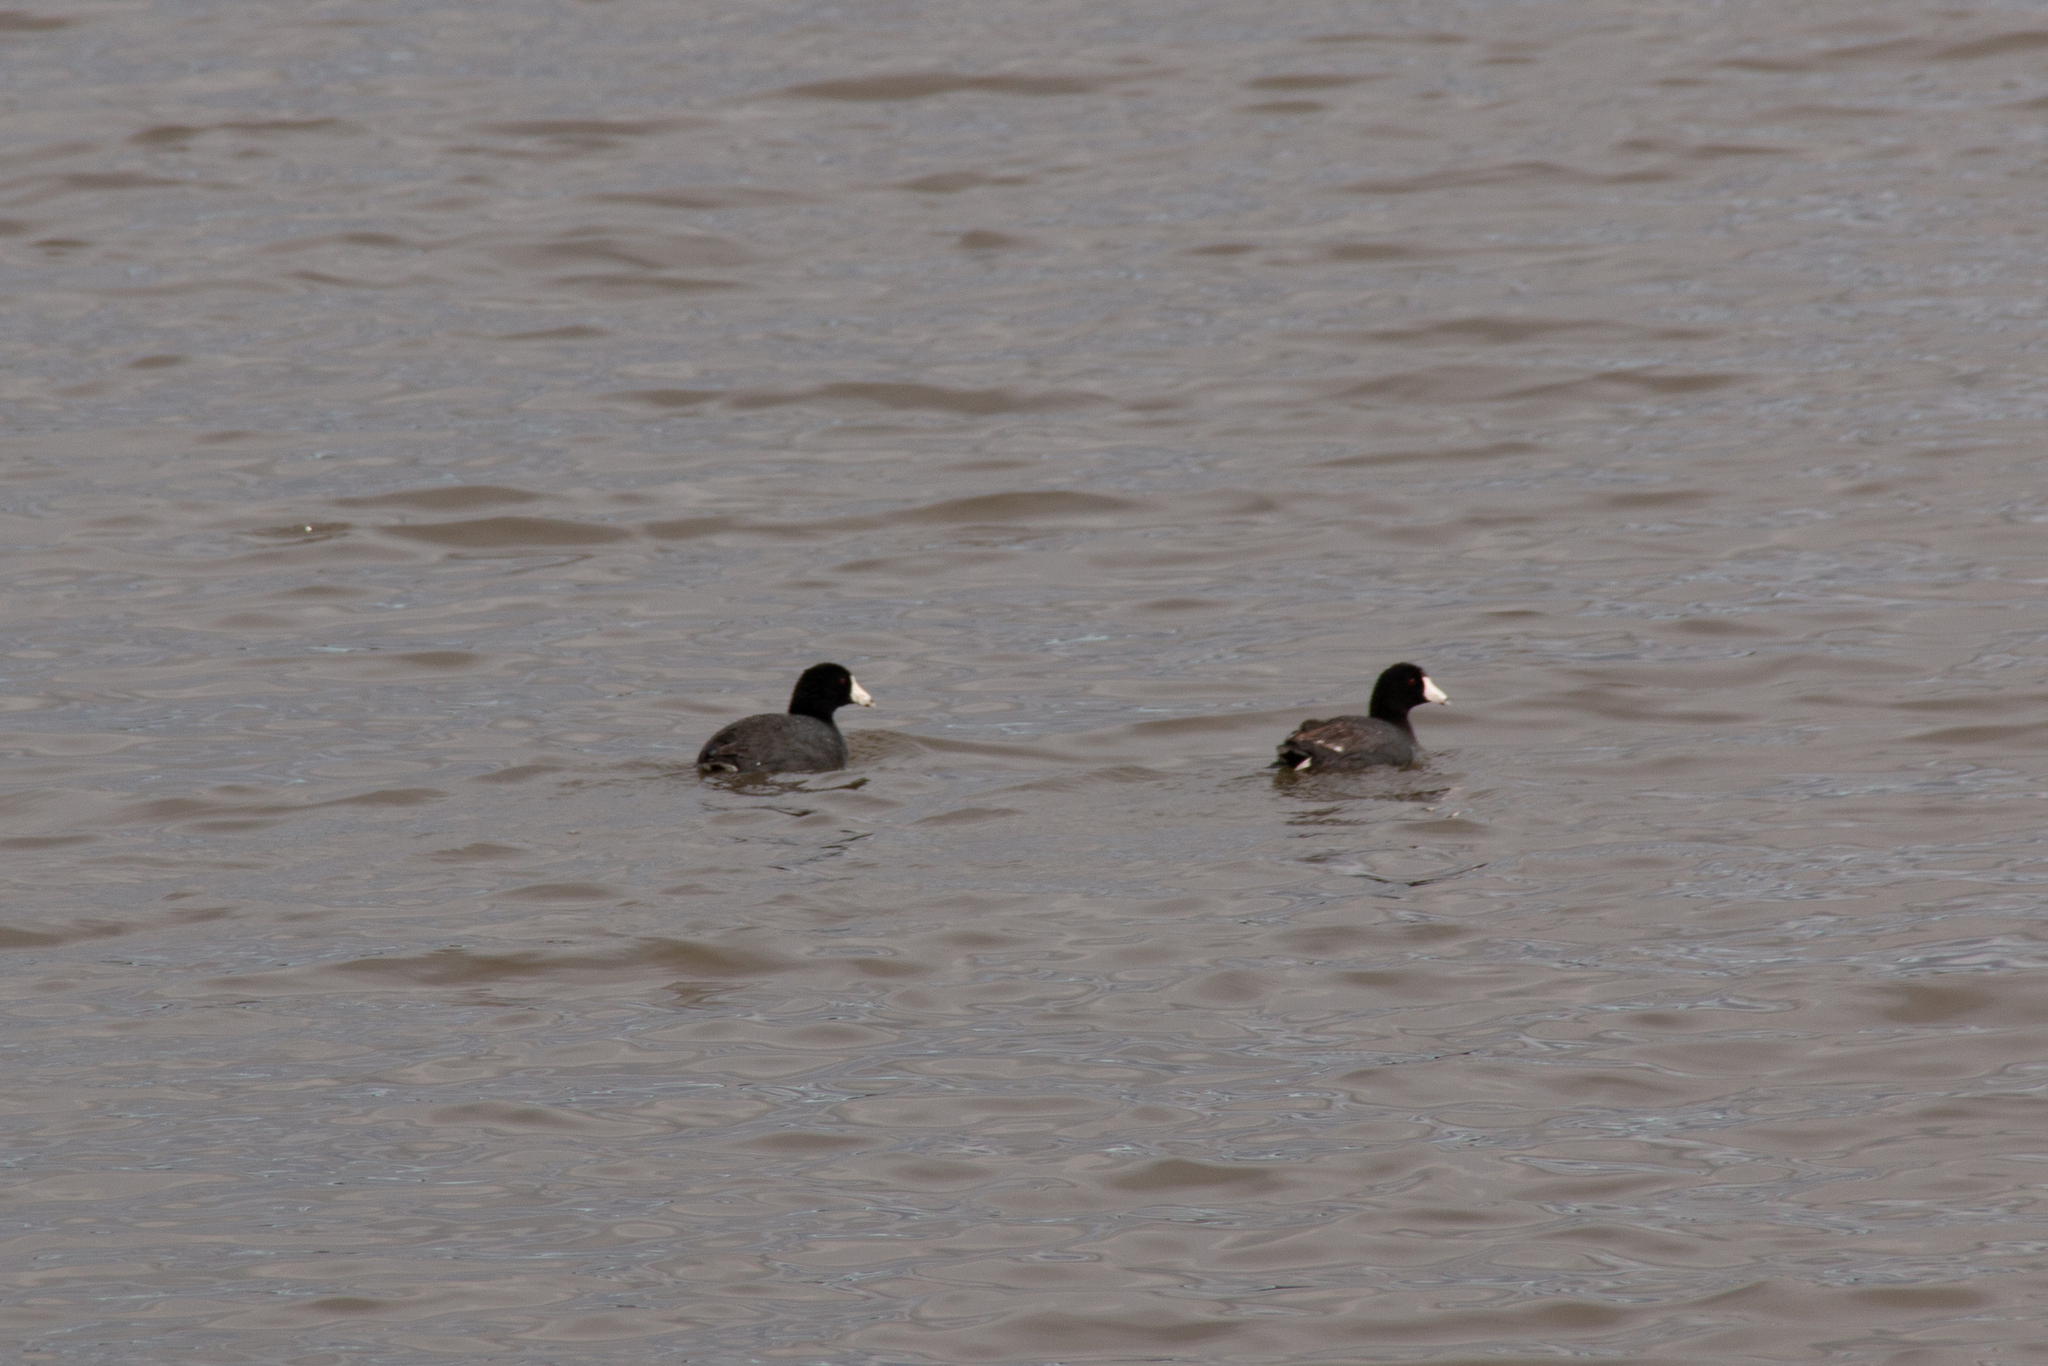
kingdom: Animalia
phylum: Chordata
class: Aves
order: Gruiformes
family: Rallidae
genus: Fulica
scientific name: Fulica americana
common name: American coot
